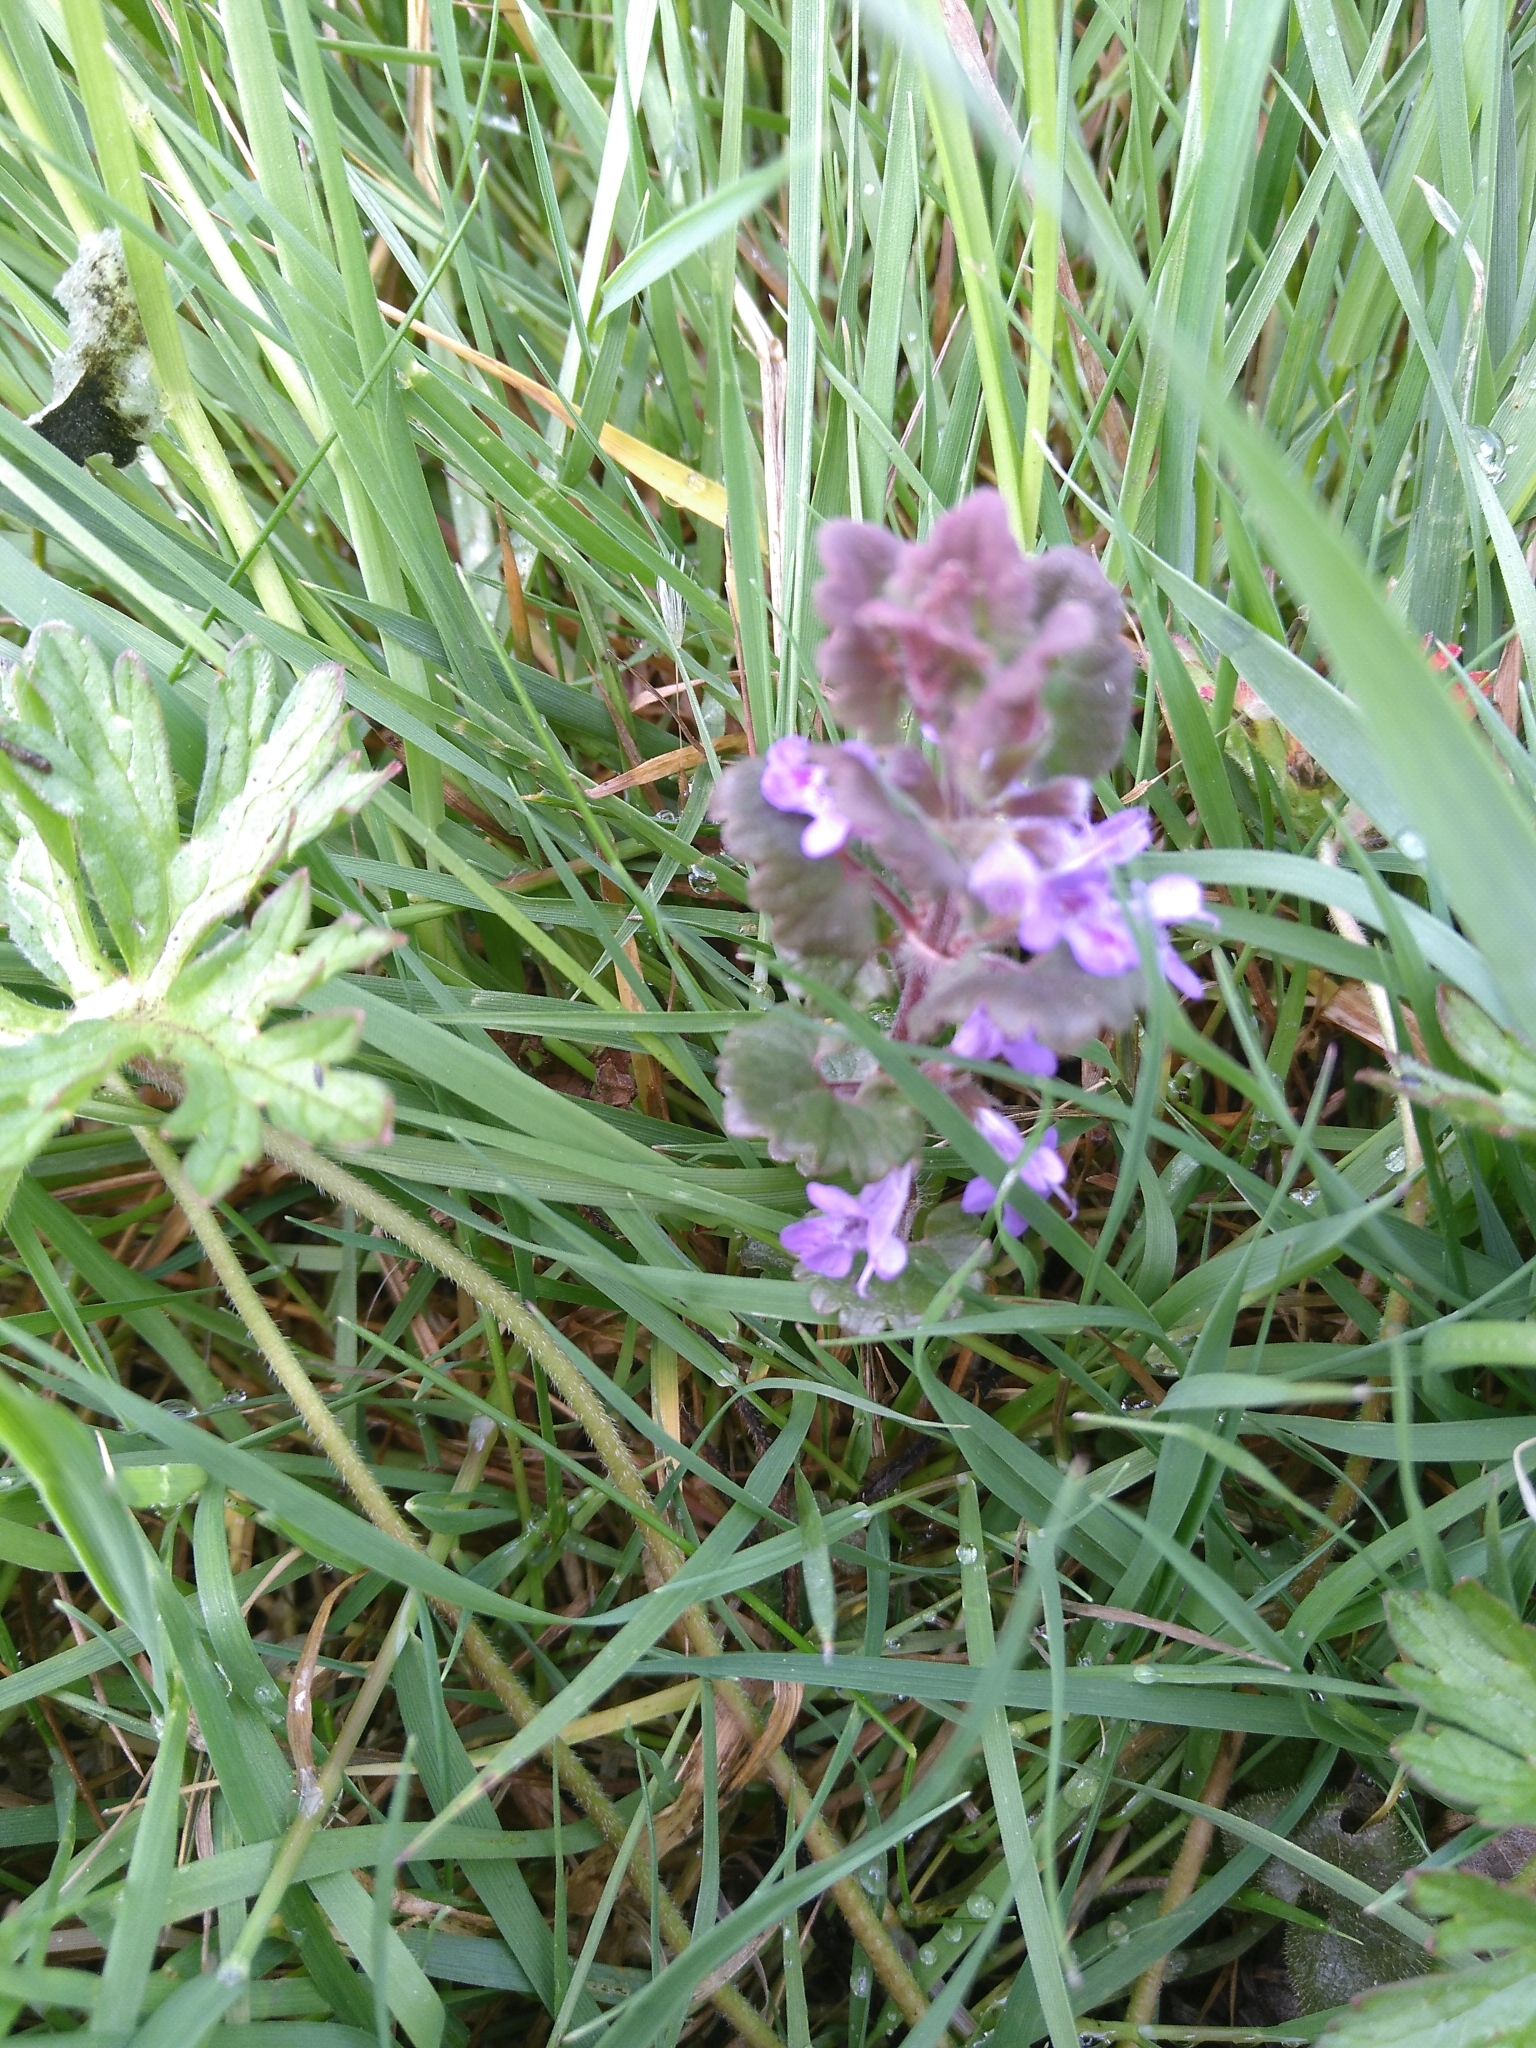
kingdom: Plantae
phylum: Tracheophyta
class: Magnoliopsida
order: Lamiales
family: Lamiaceae
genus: Glechoma
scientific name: Glechoma hederacea
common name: Ground ivy
